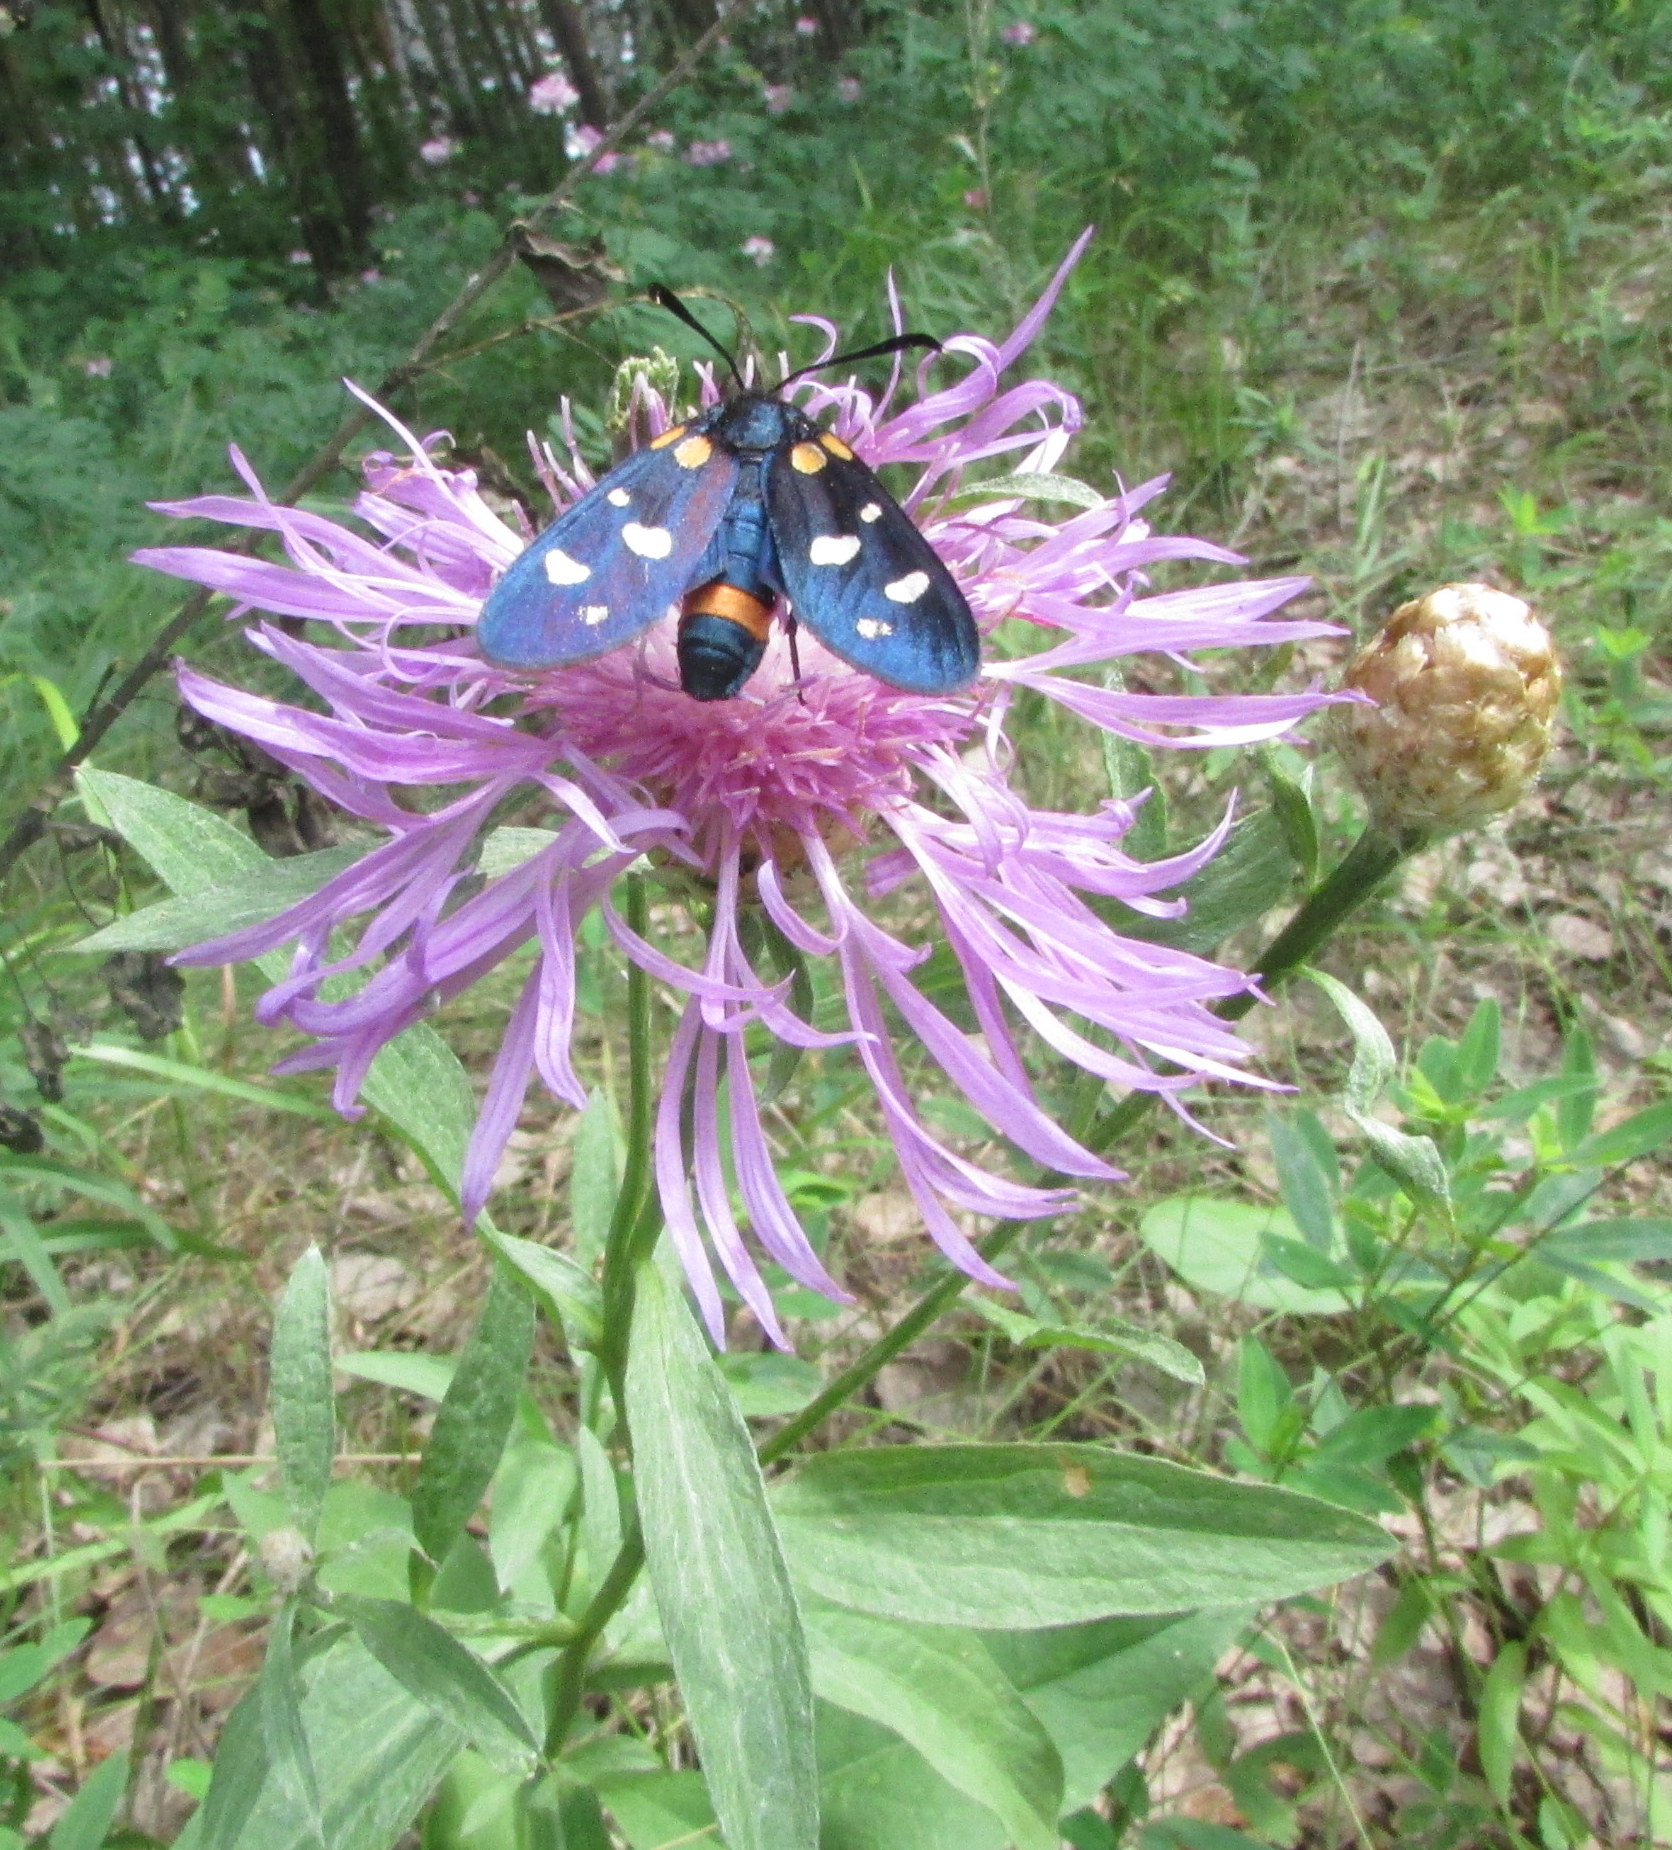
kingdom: Animalia
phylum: Arthropoda
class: Insecta
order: Lepidoptera
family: Zygaenidae
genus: Zygaena
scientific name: Zygaena ephialtes
